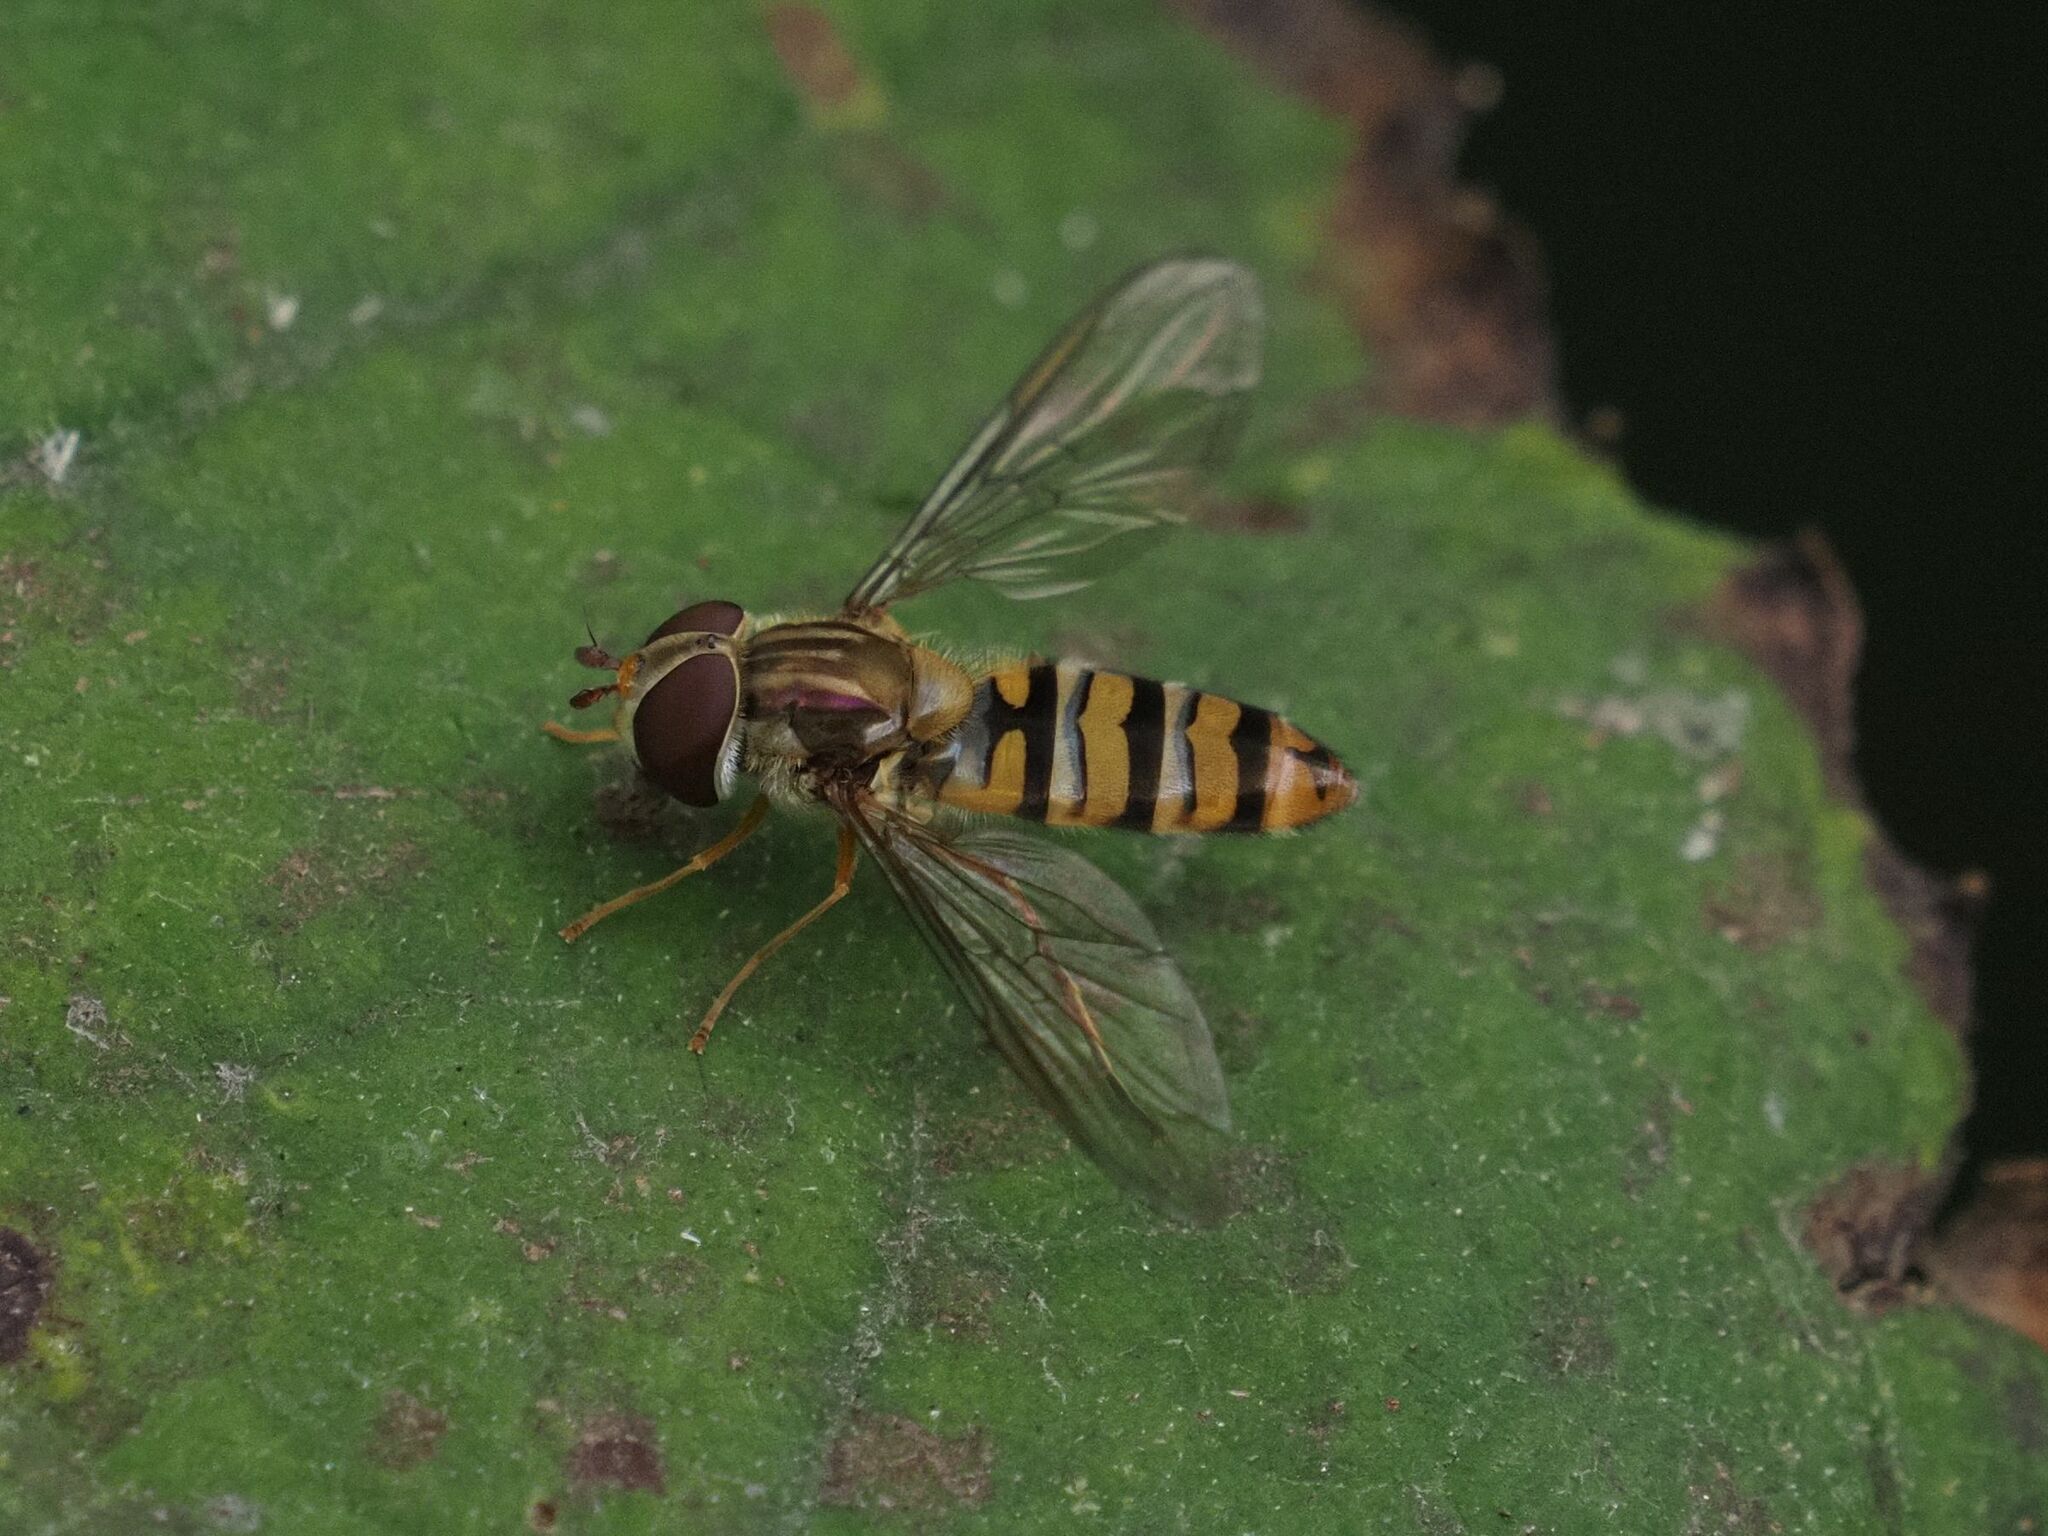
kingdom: Animalia
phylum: Arthropoda
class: Insecta
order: Diptera
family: Syrphidae
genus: Episyrphus
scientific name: Episyrphus balteatus
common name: Marmalade hoverfly
